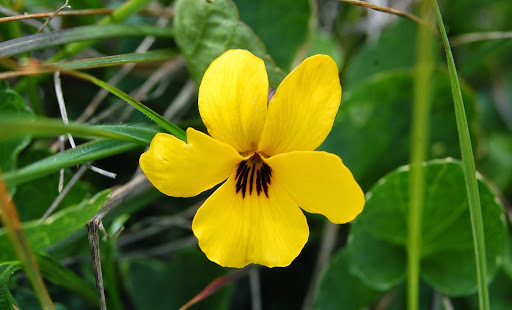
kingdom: Plantae
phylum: Tracheophyta
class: Magnoliopsida
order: Malpighiales
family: Violaceae
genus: Viola
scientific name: Viola pedunculata
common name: California golden violet
